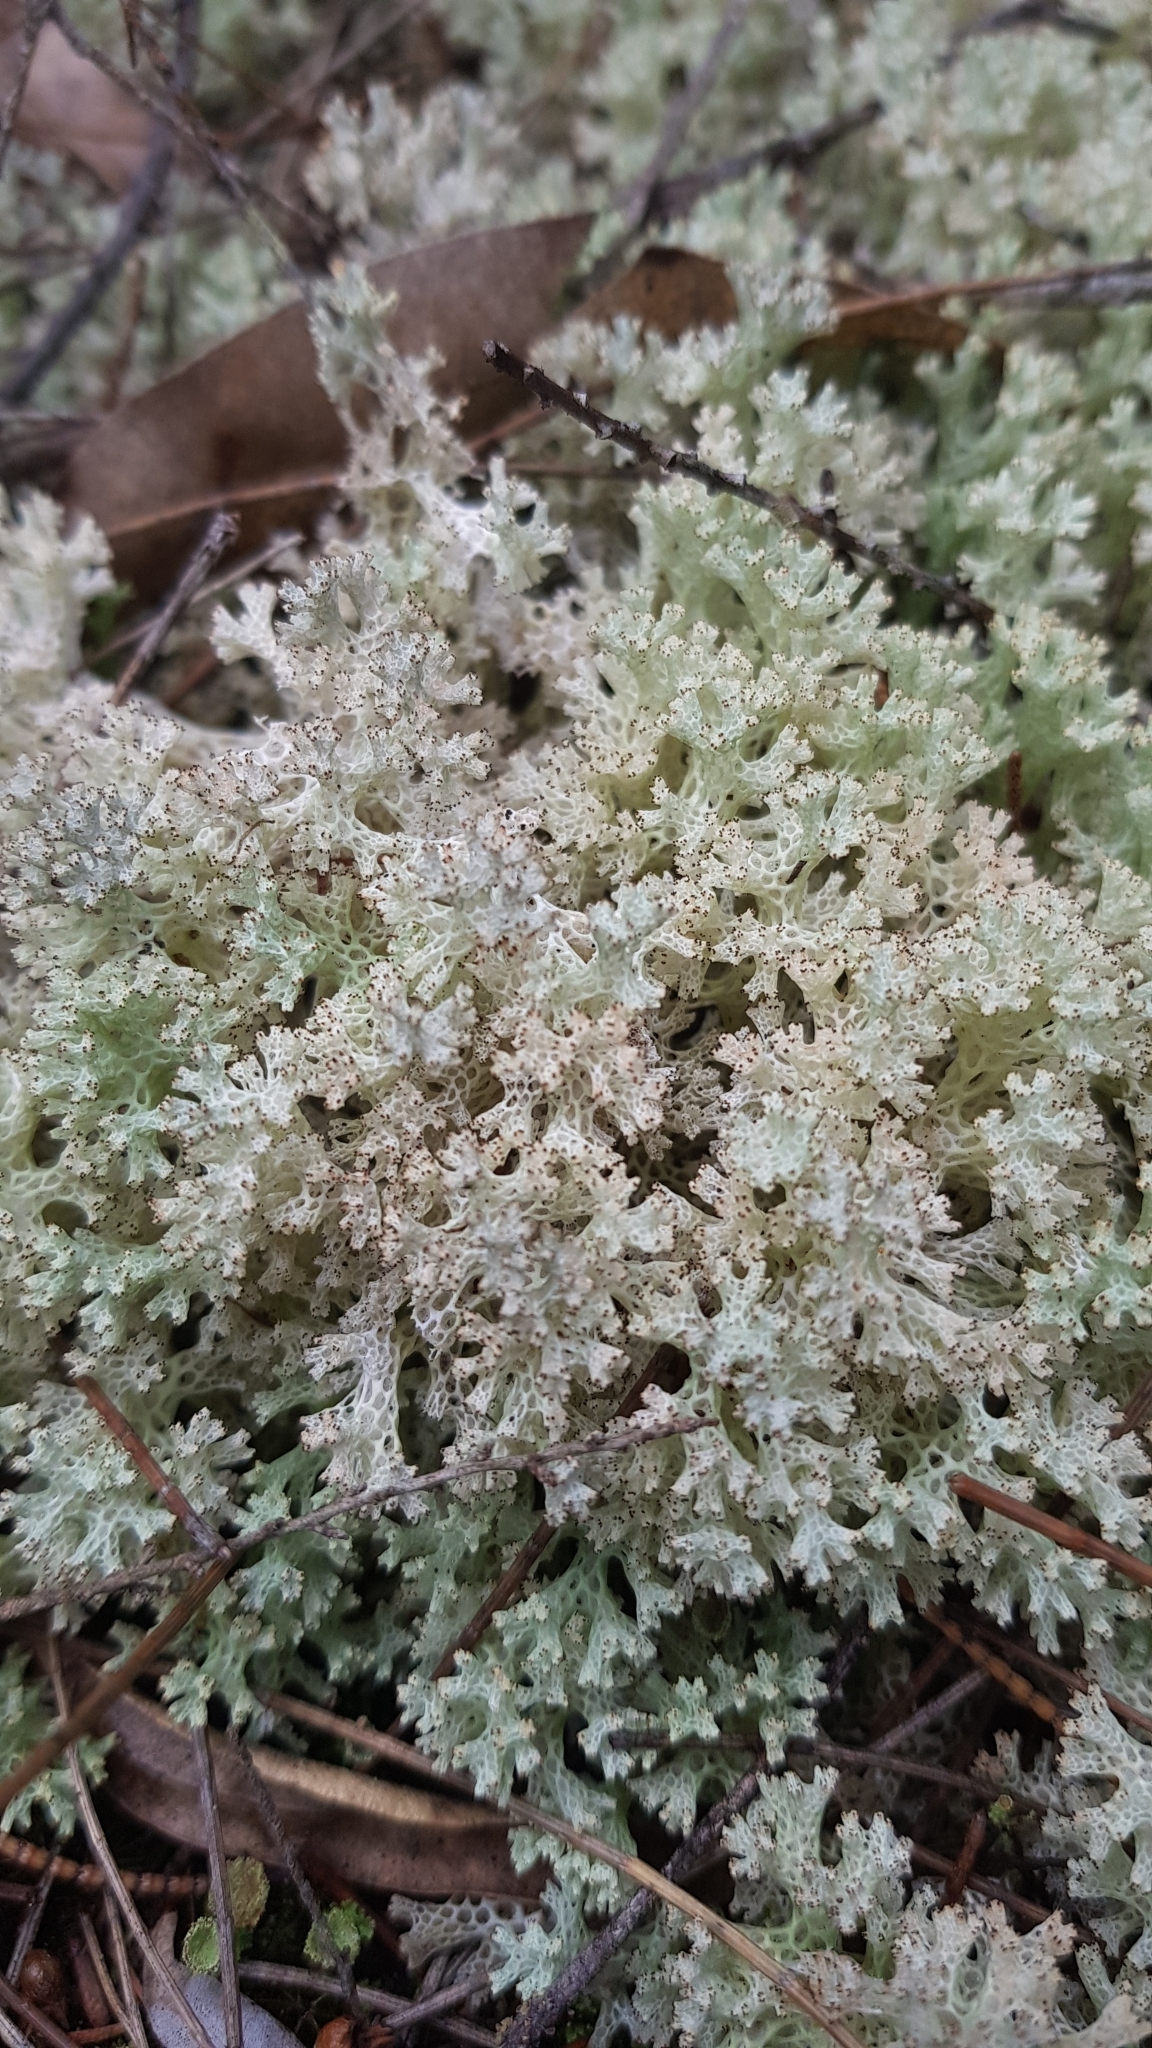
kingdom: Fungi
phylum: Ascomycota
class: Lecanoromycetes
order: Lecanorales
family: Cladoniaceae
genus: Pulchrocladia
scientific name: Pulchrocladia retipora
